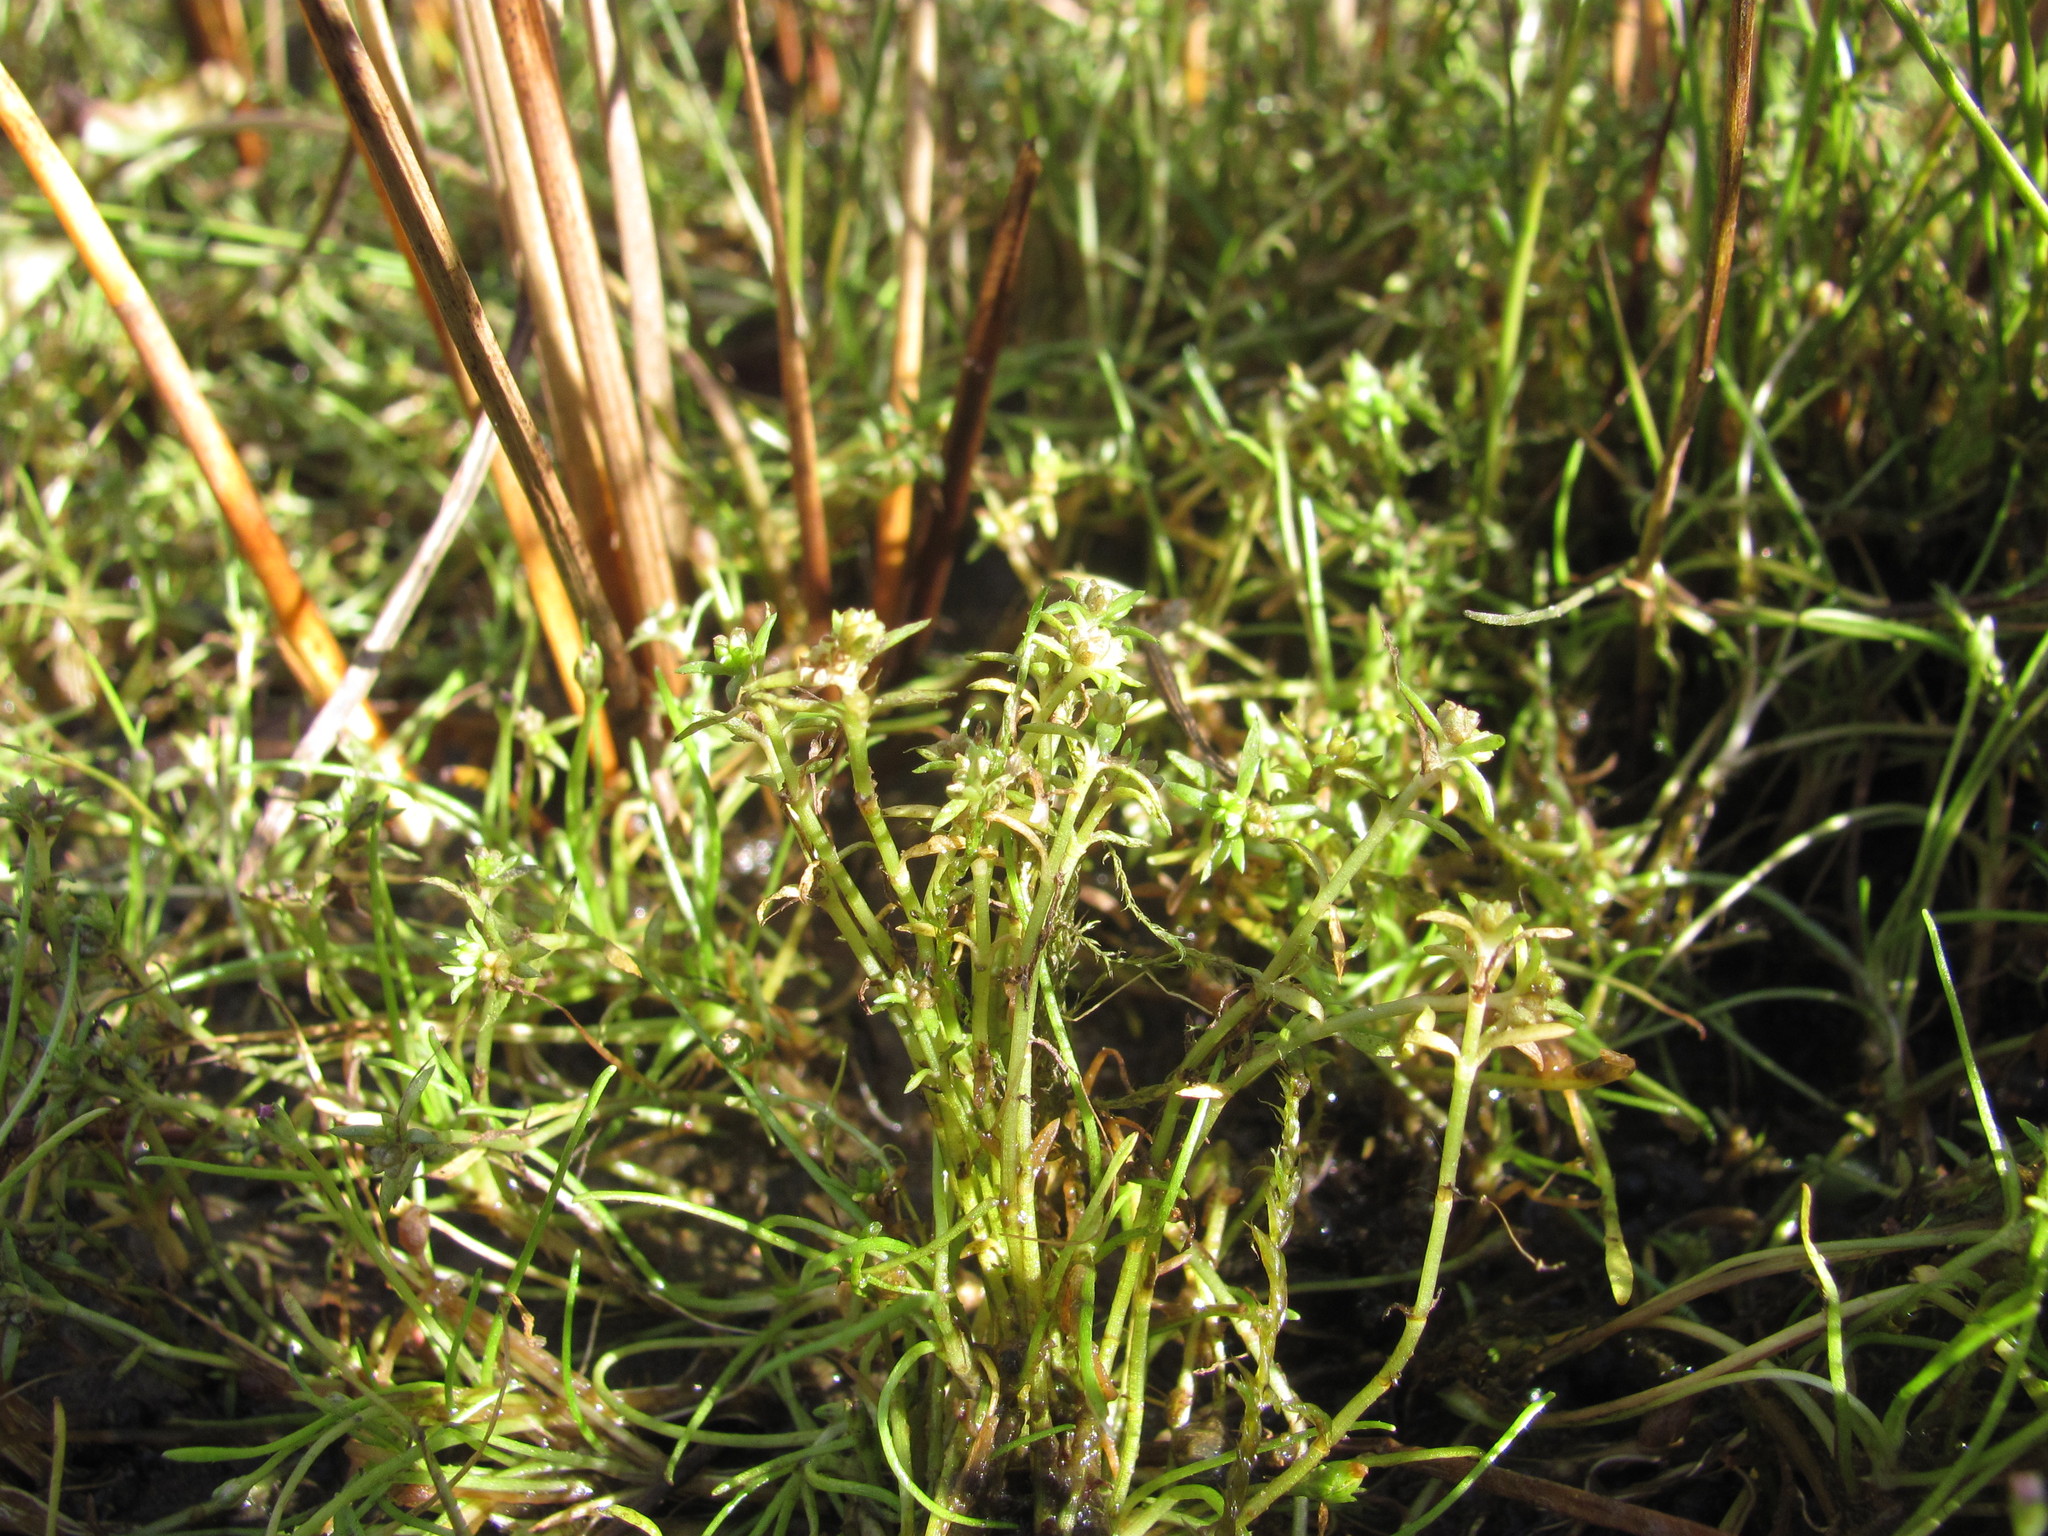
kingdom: Plantae
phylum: Tracheophyta
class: Magnoliopsida
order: Saxifragales
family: Crassulaceae
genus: Crassula
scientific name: Crassula aquatica
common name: Pigmyweed
